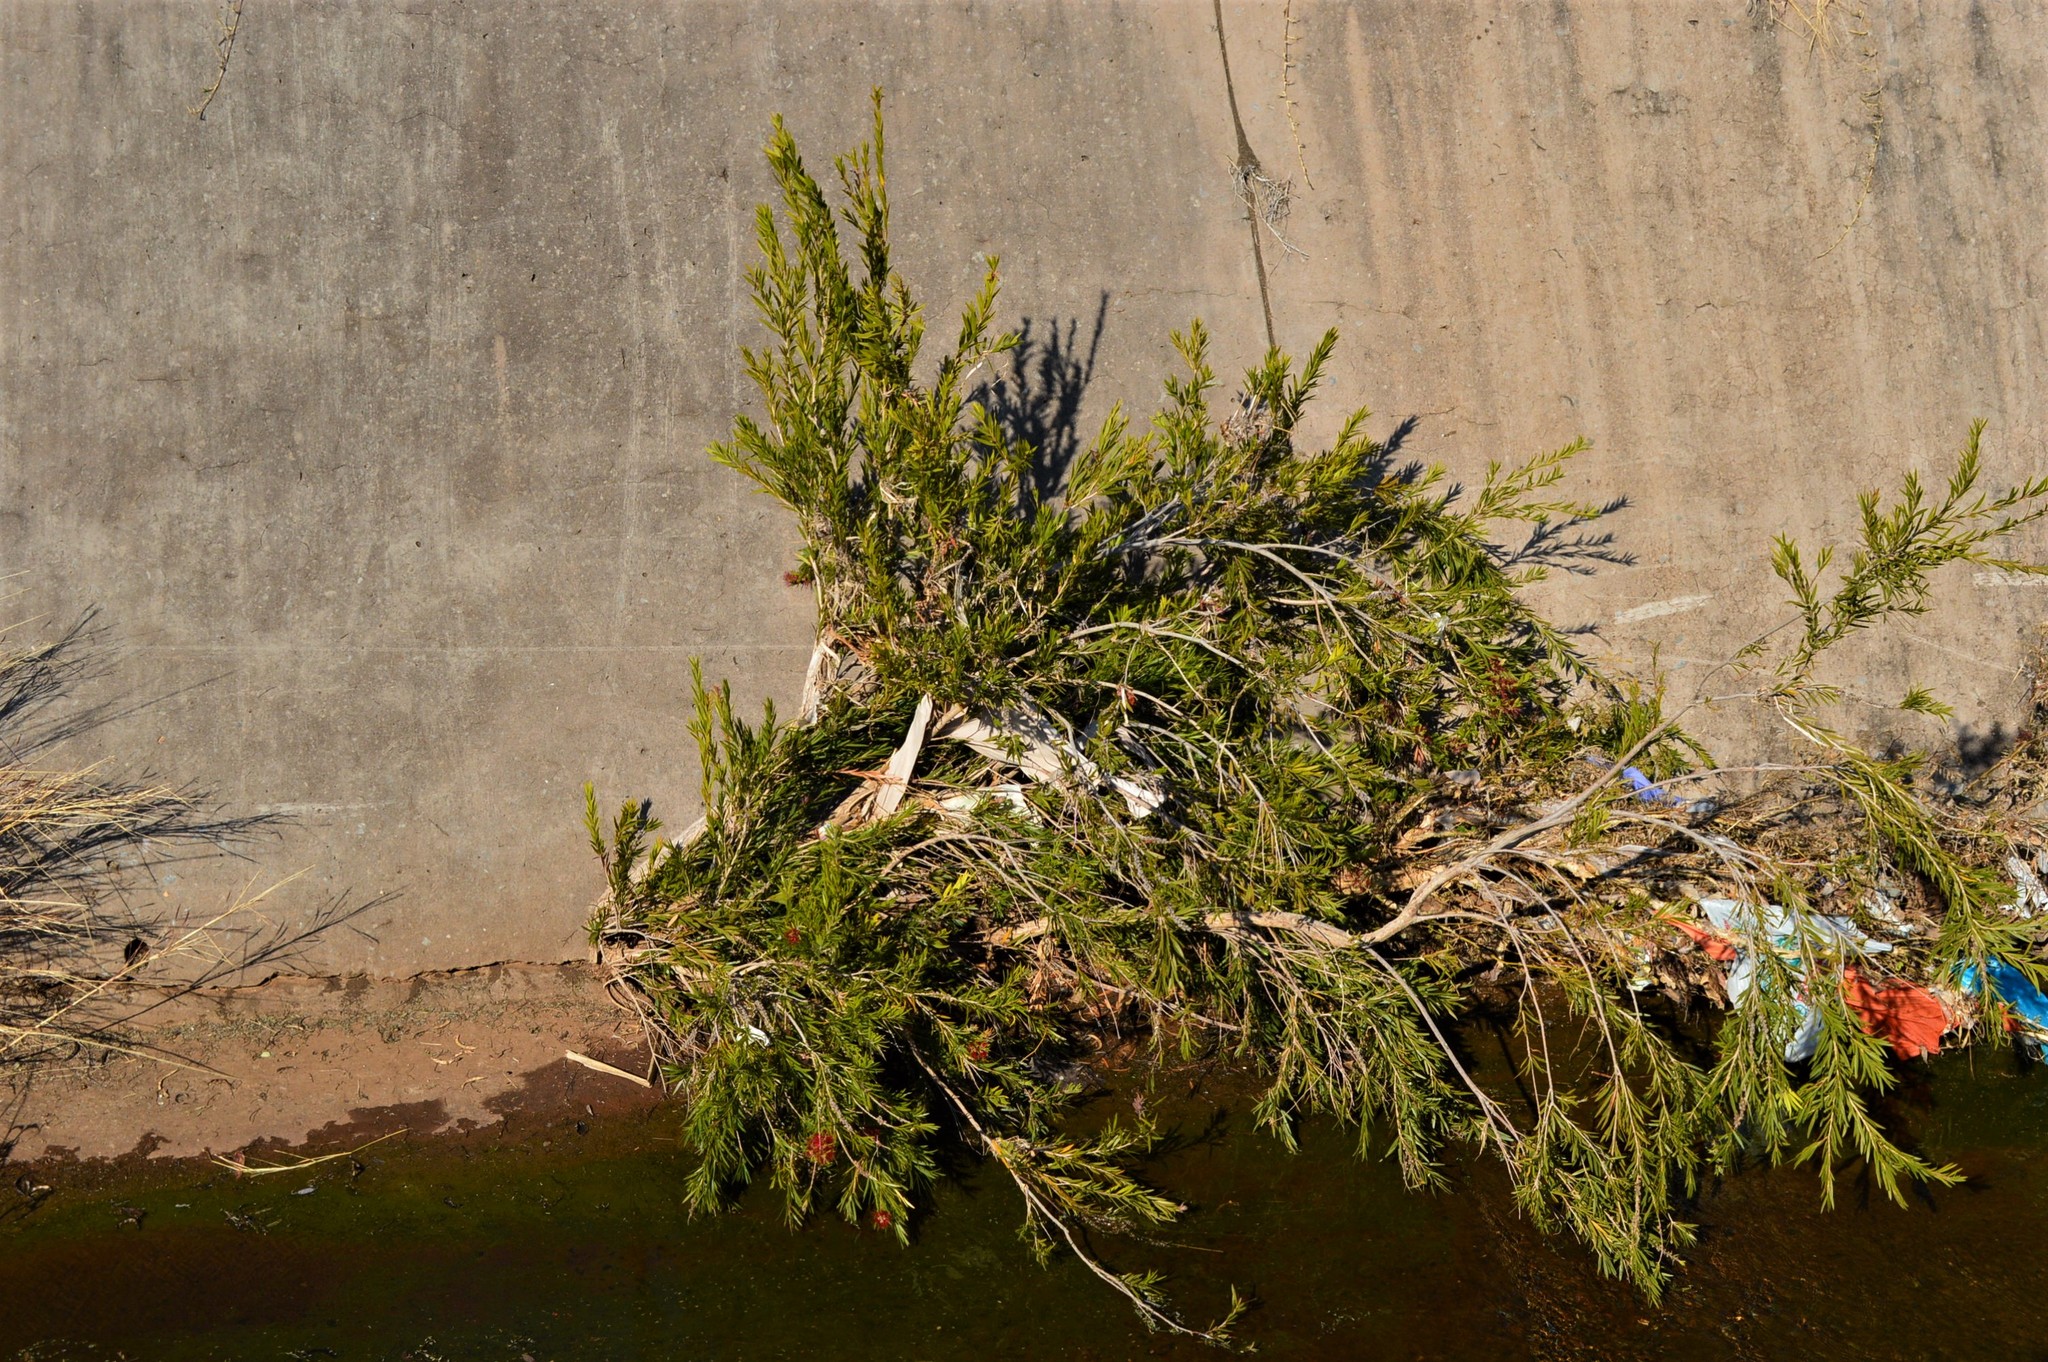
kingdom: Plantae
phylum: Tracheophyta
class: Magnoliopsida
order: Myrtales
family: Myrtaceae
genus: Callistemon
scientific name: Callistemon viminalis
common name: Drooping bottlebrush
